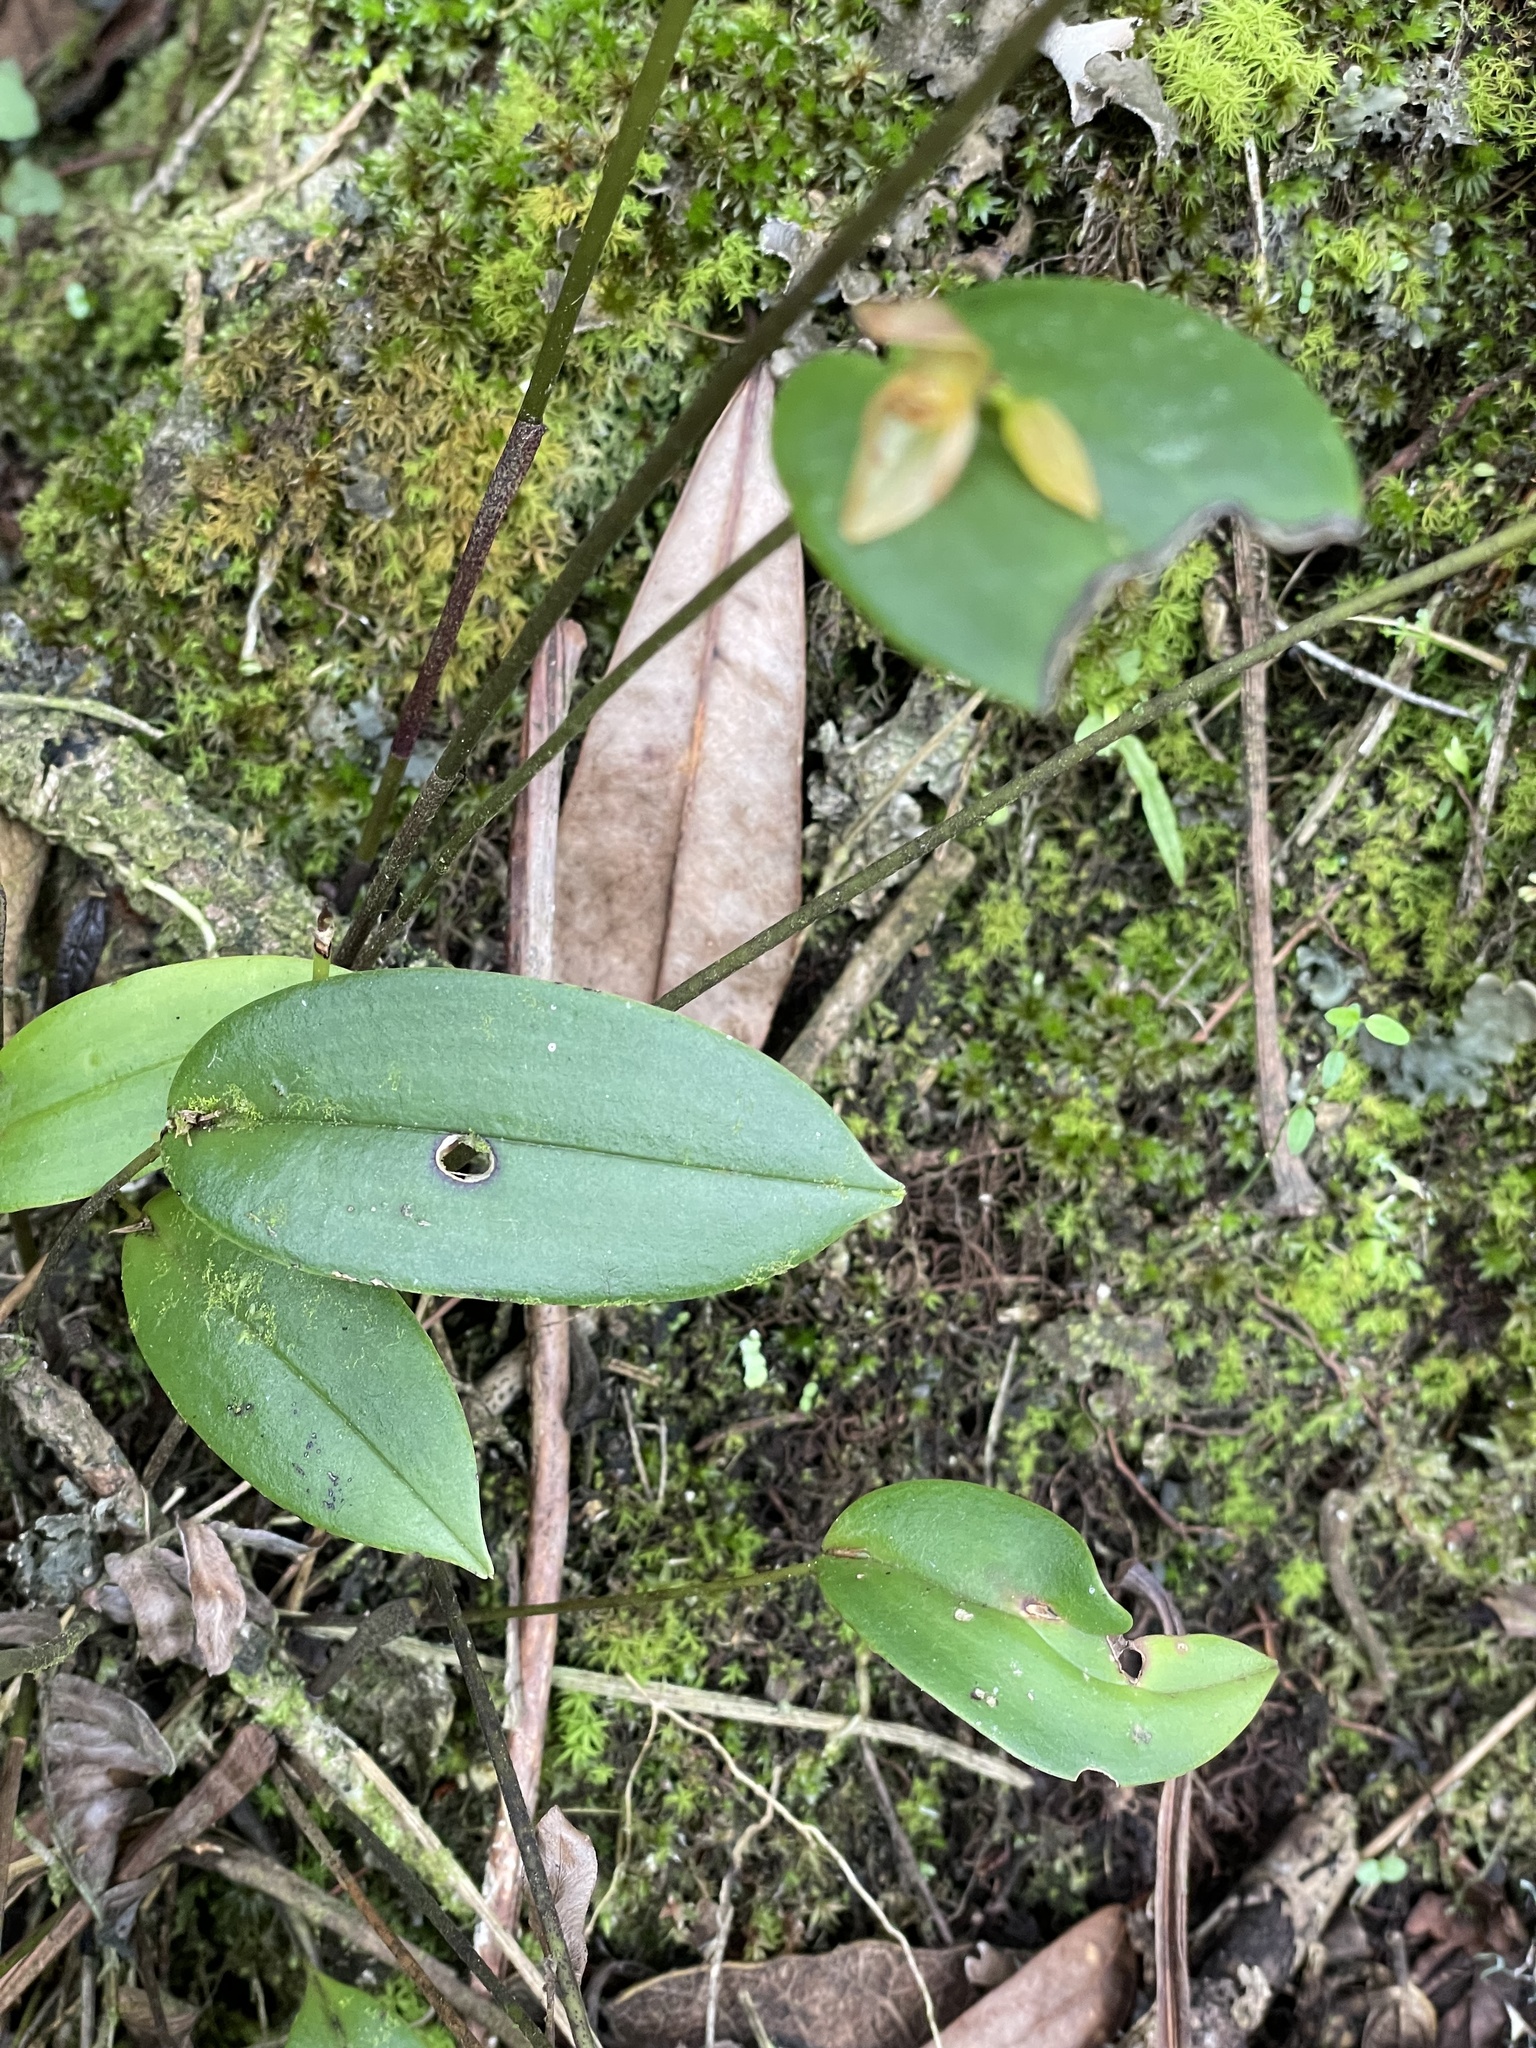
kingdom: Plantae
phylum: Tracheophyta
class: Liliopsida
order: Asparagales
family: Orchidaceae
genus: Pleurothallis
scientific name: Pleurothallis siphoglossa
